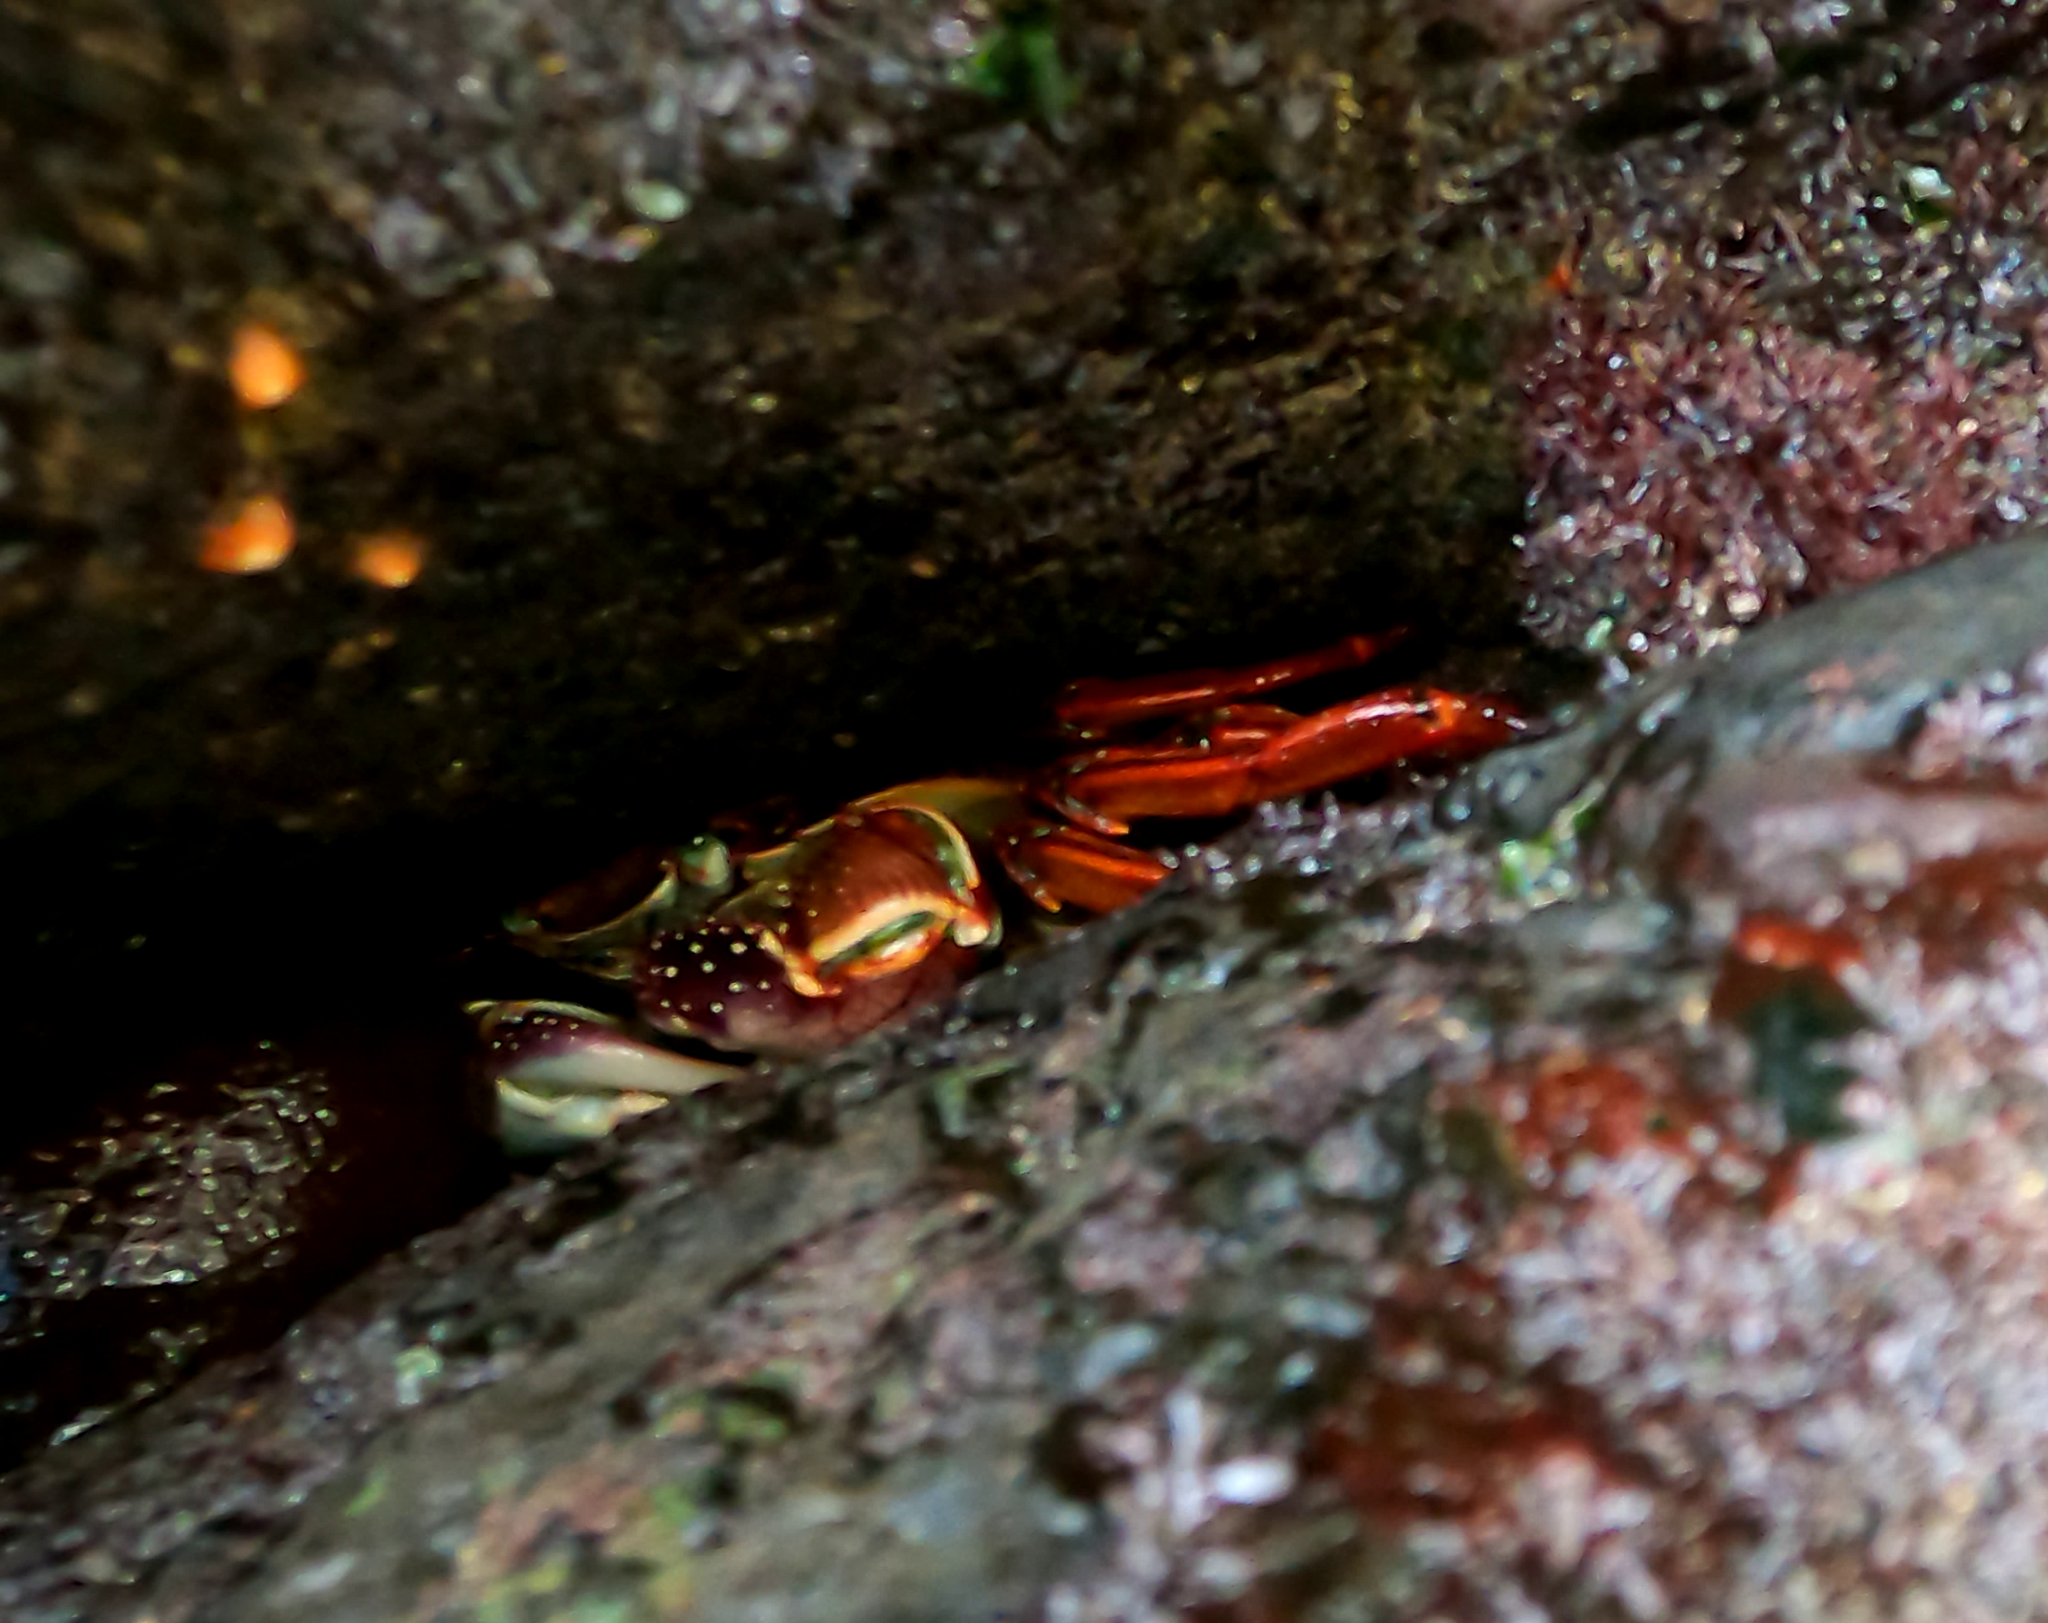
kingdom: Animalia
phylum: Arthropoda
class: Malacostraca
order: Decapoda
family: Grapsidae
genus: Leptograpsus
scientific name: Leptograpsus variegatus
